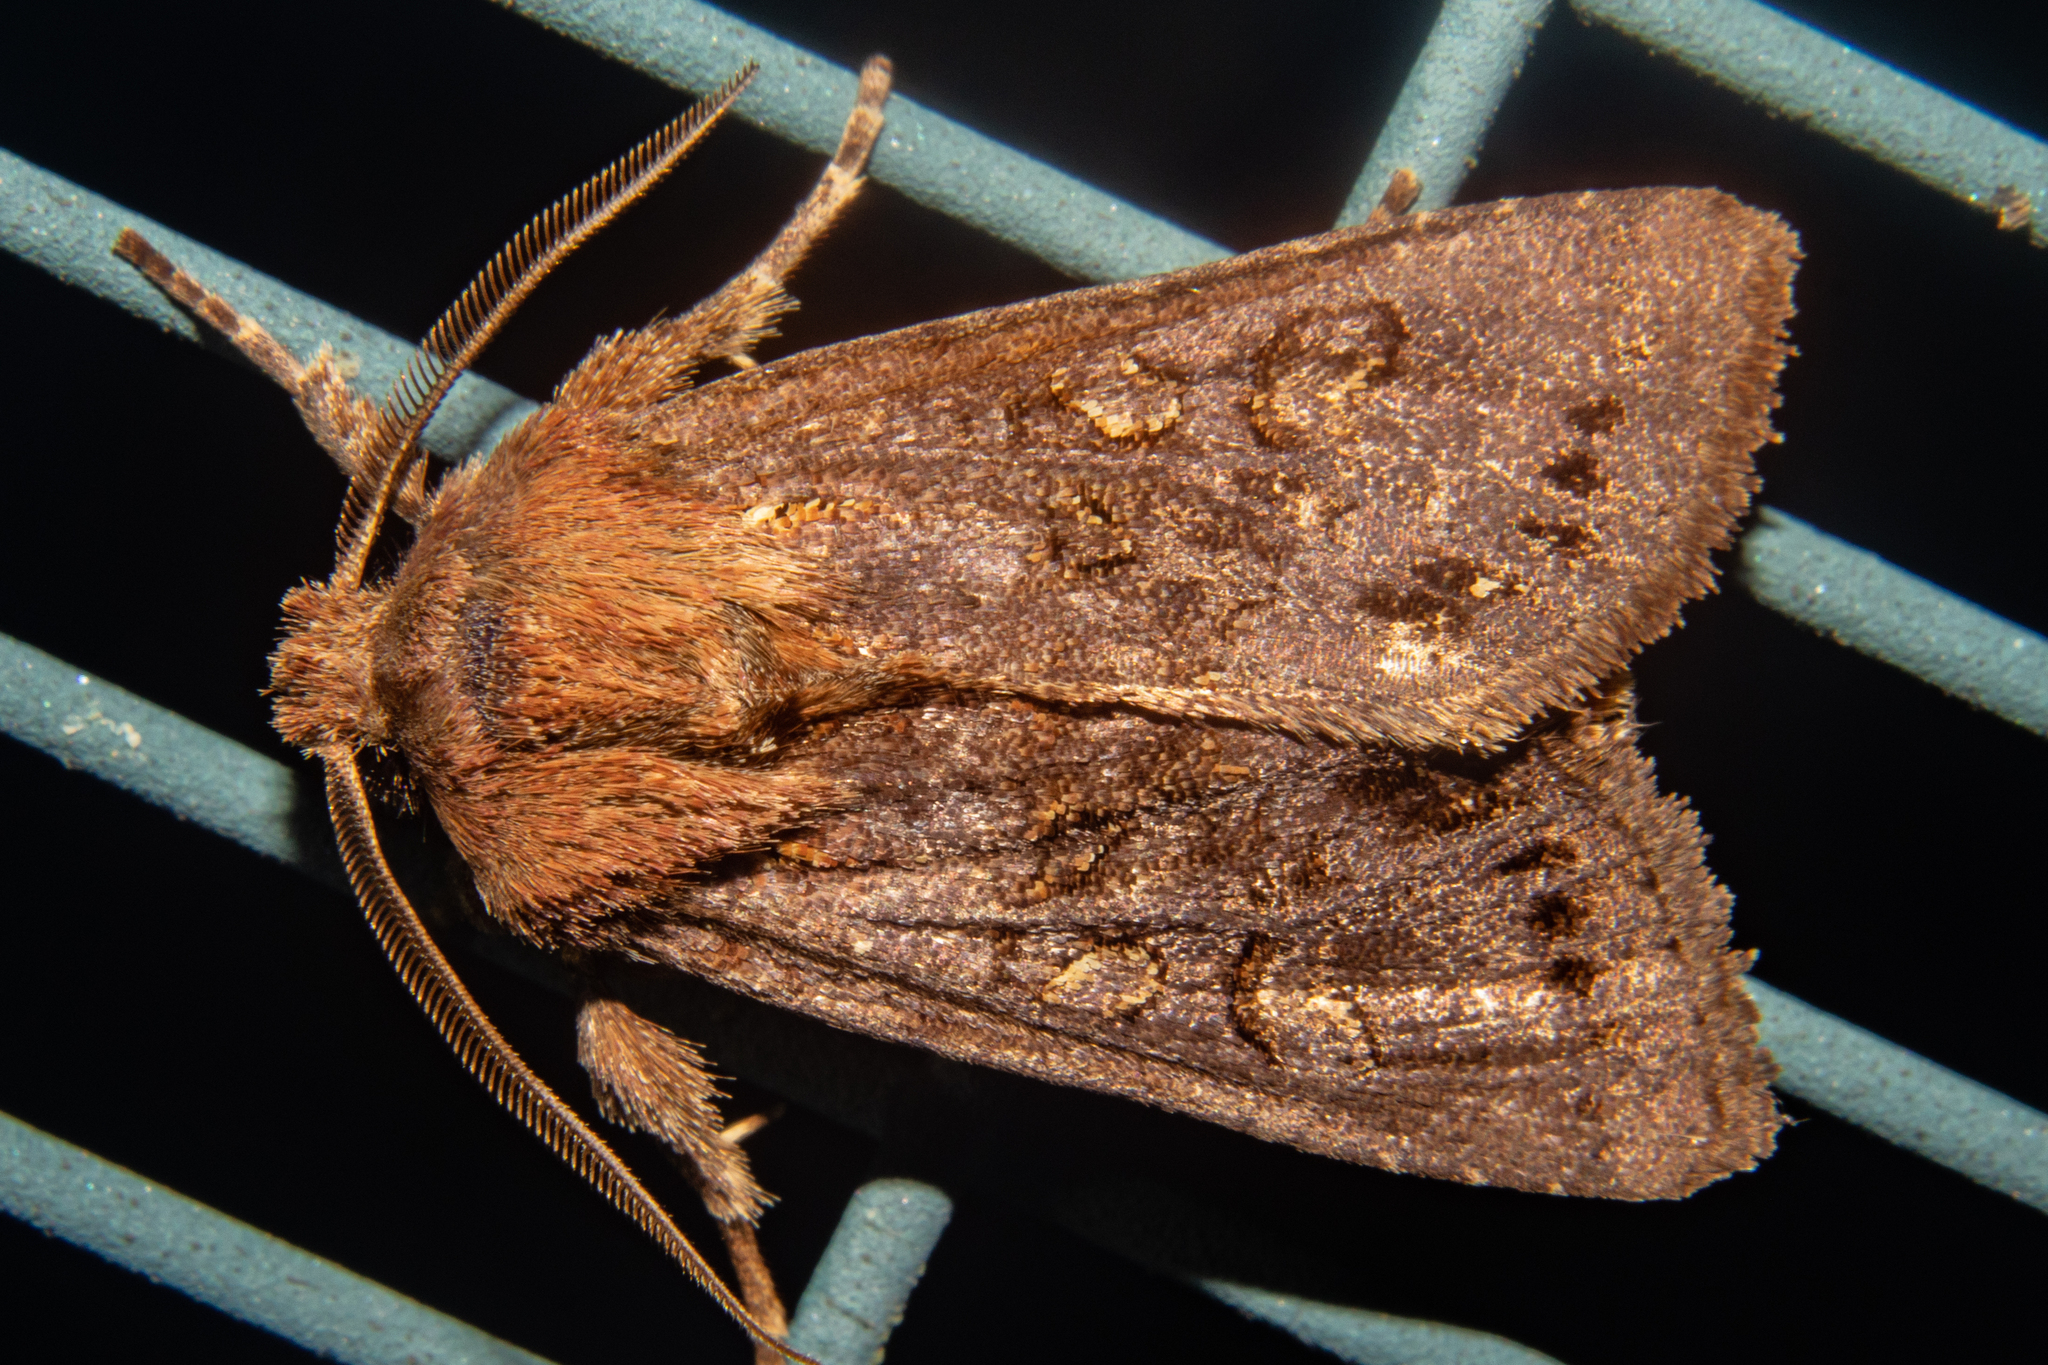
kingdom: Animalia
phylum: Arthropoda
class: Insecta
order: Lepidoptera
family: Noctuidae
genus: Ichneutica
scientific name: Ichneutica
